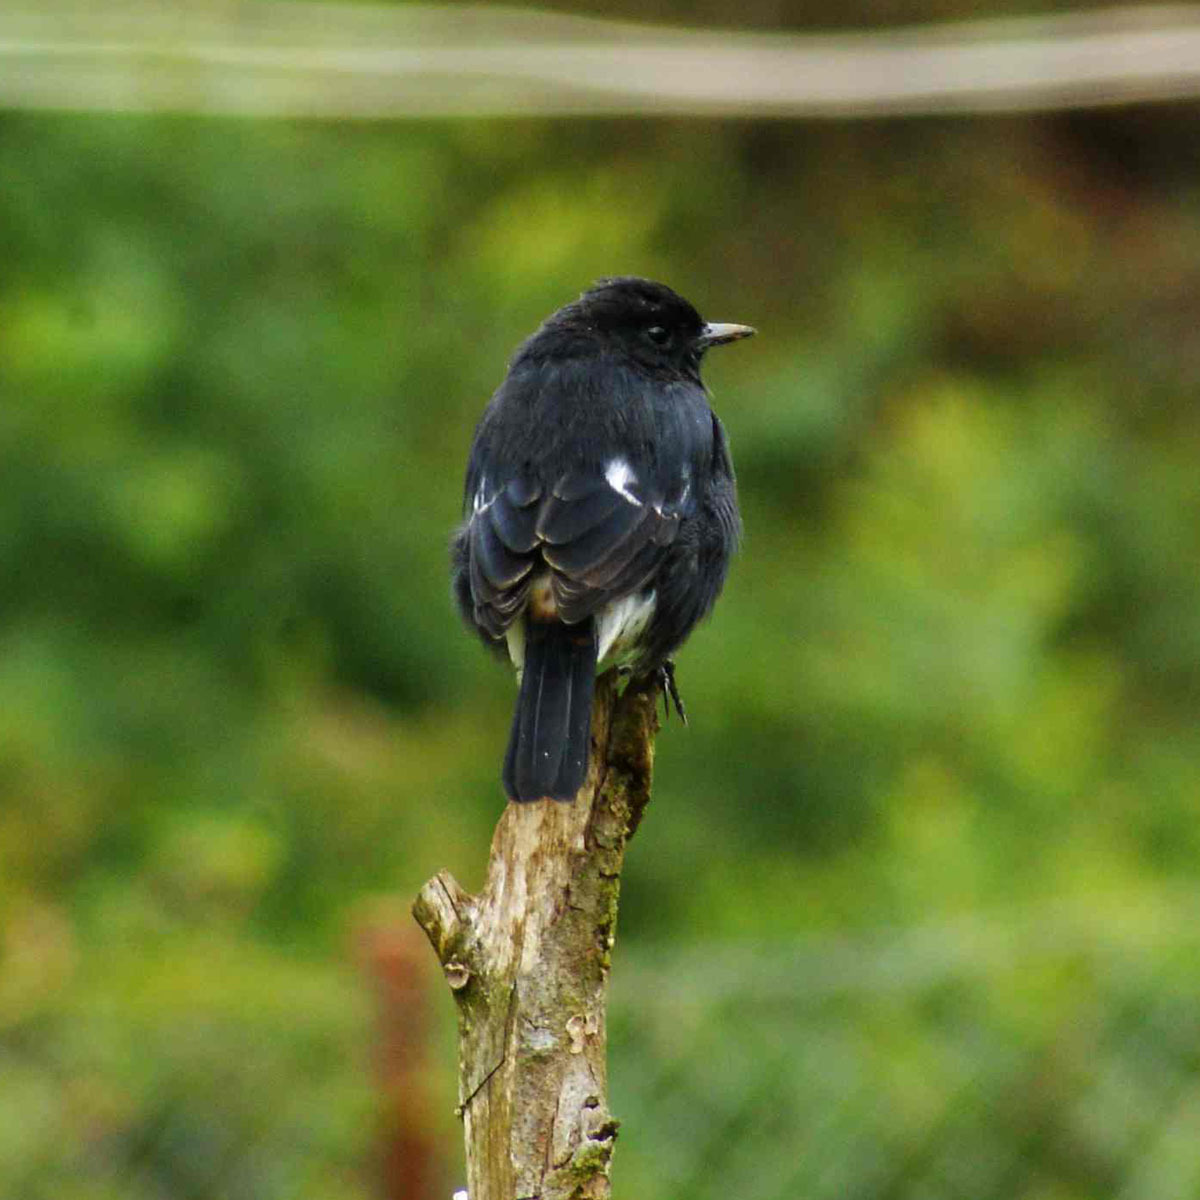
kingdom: Animalia
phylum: Chordata
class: Aves
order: Passeriformes
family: Muscicapidae
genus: Saxicola
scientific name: Saxicola caprata
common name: Pied bush chat
